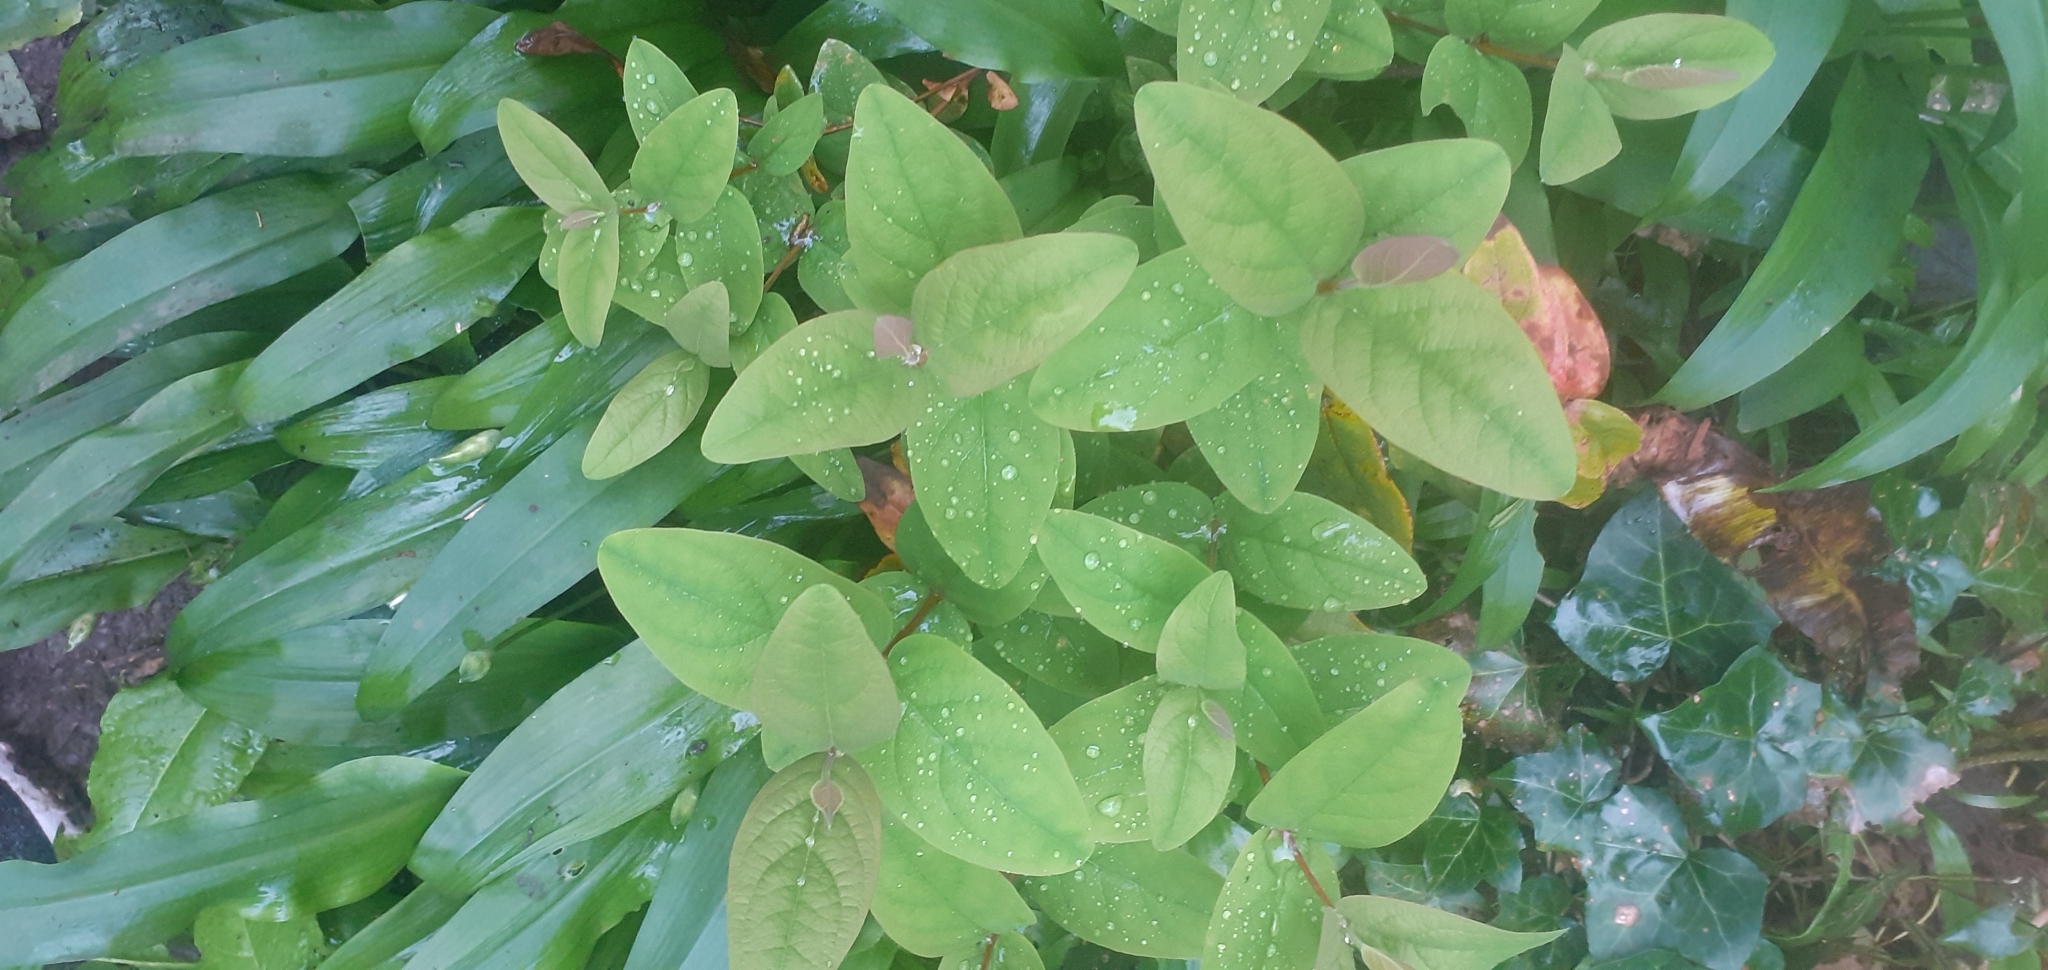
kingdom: Plantae
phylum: Tracheophyta
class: Magnoliopsida
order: Malpighiales
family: Hypericaceae
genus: Hypericum
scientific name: Hypericum androsaemum
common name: Sweet-amber
